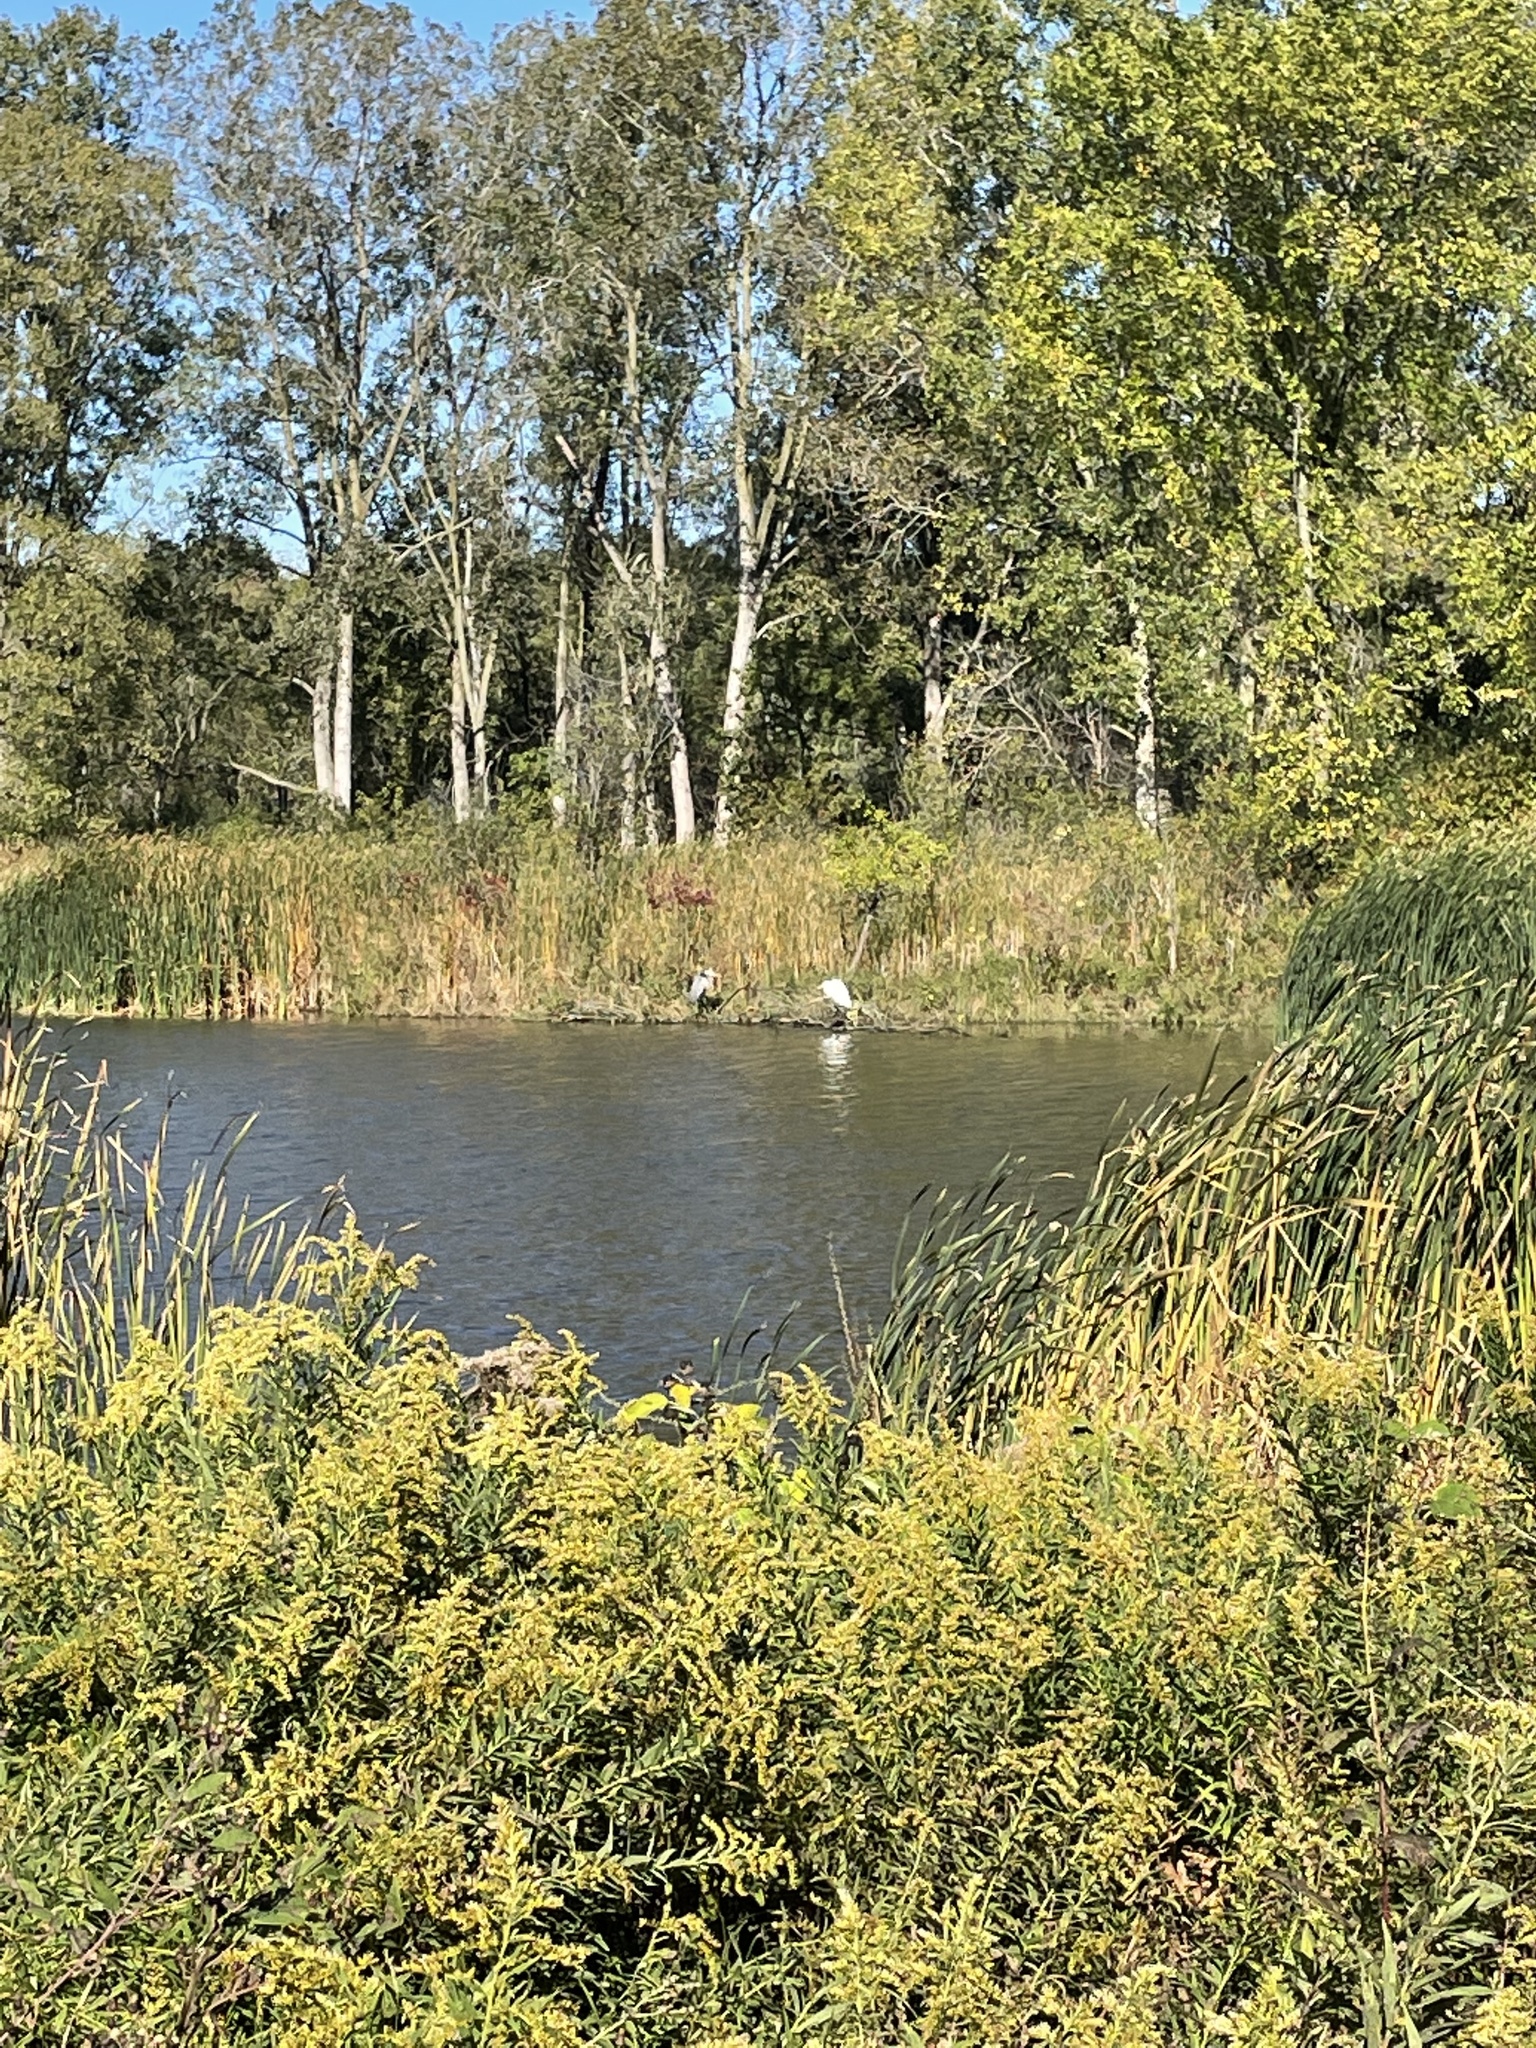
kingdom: Animalia
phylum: Chordata
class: Aves
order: Pelecaniformes
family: Ardeidae
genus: Ardea
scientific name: Ardea herodias
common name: Great blue heron
